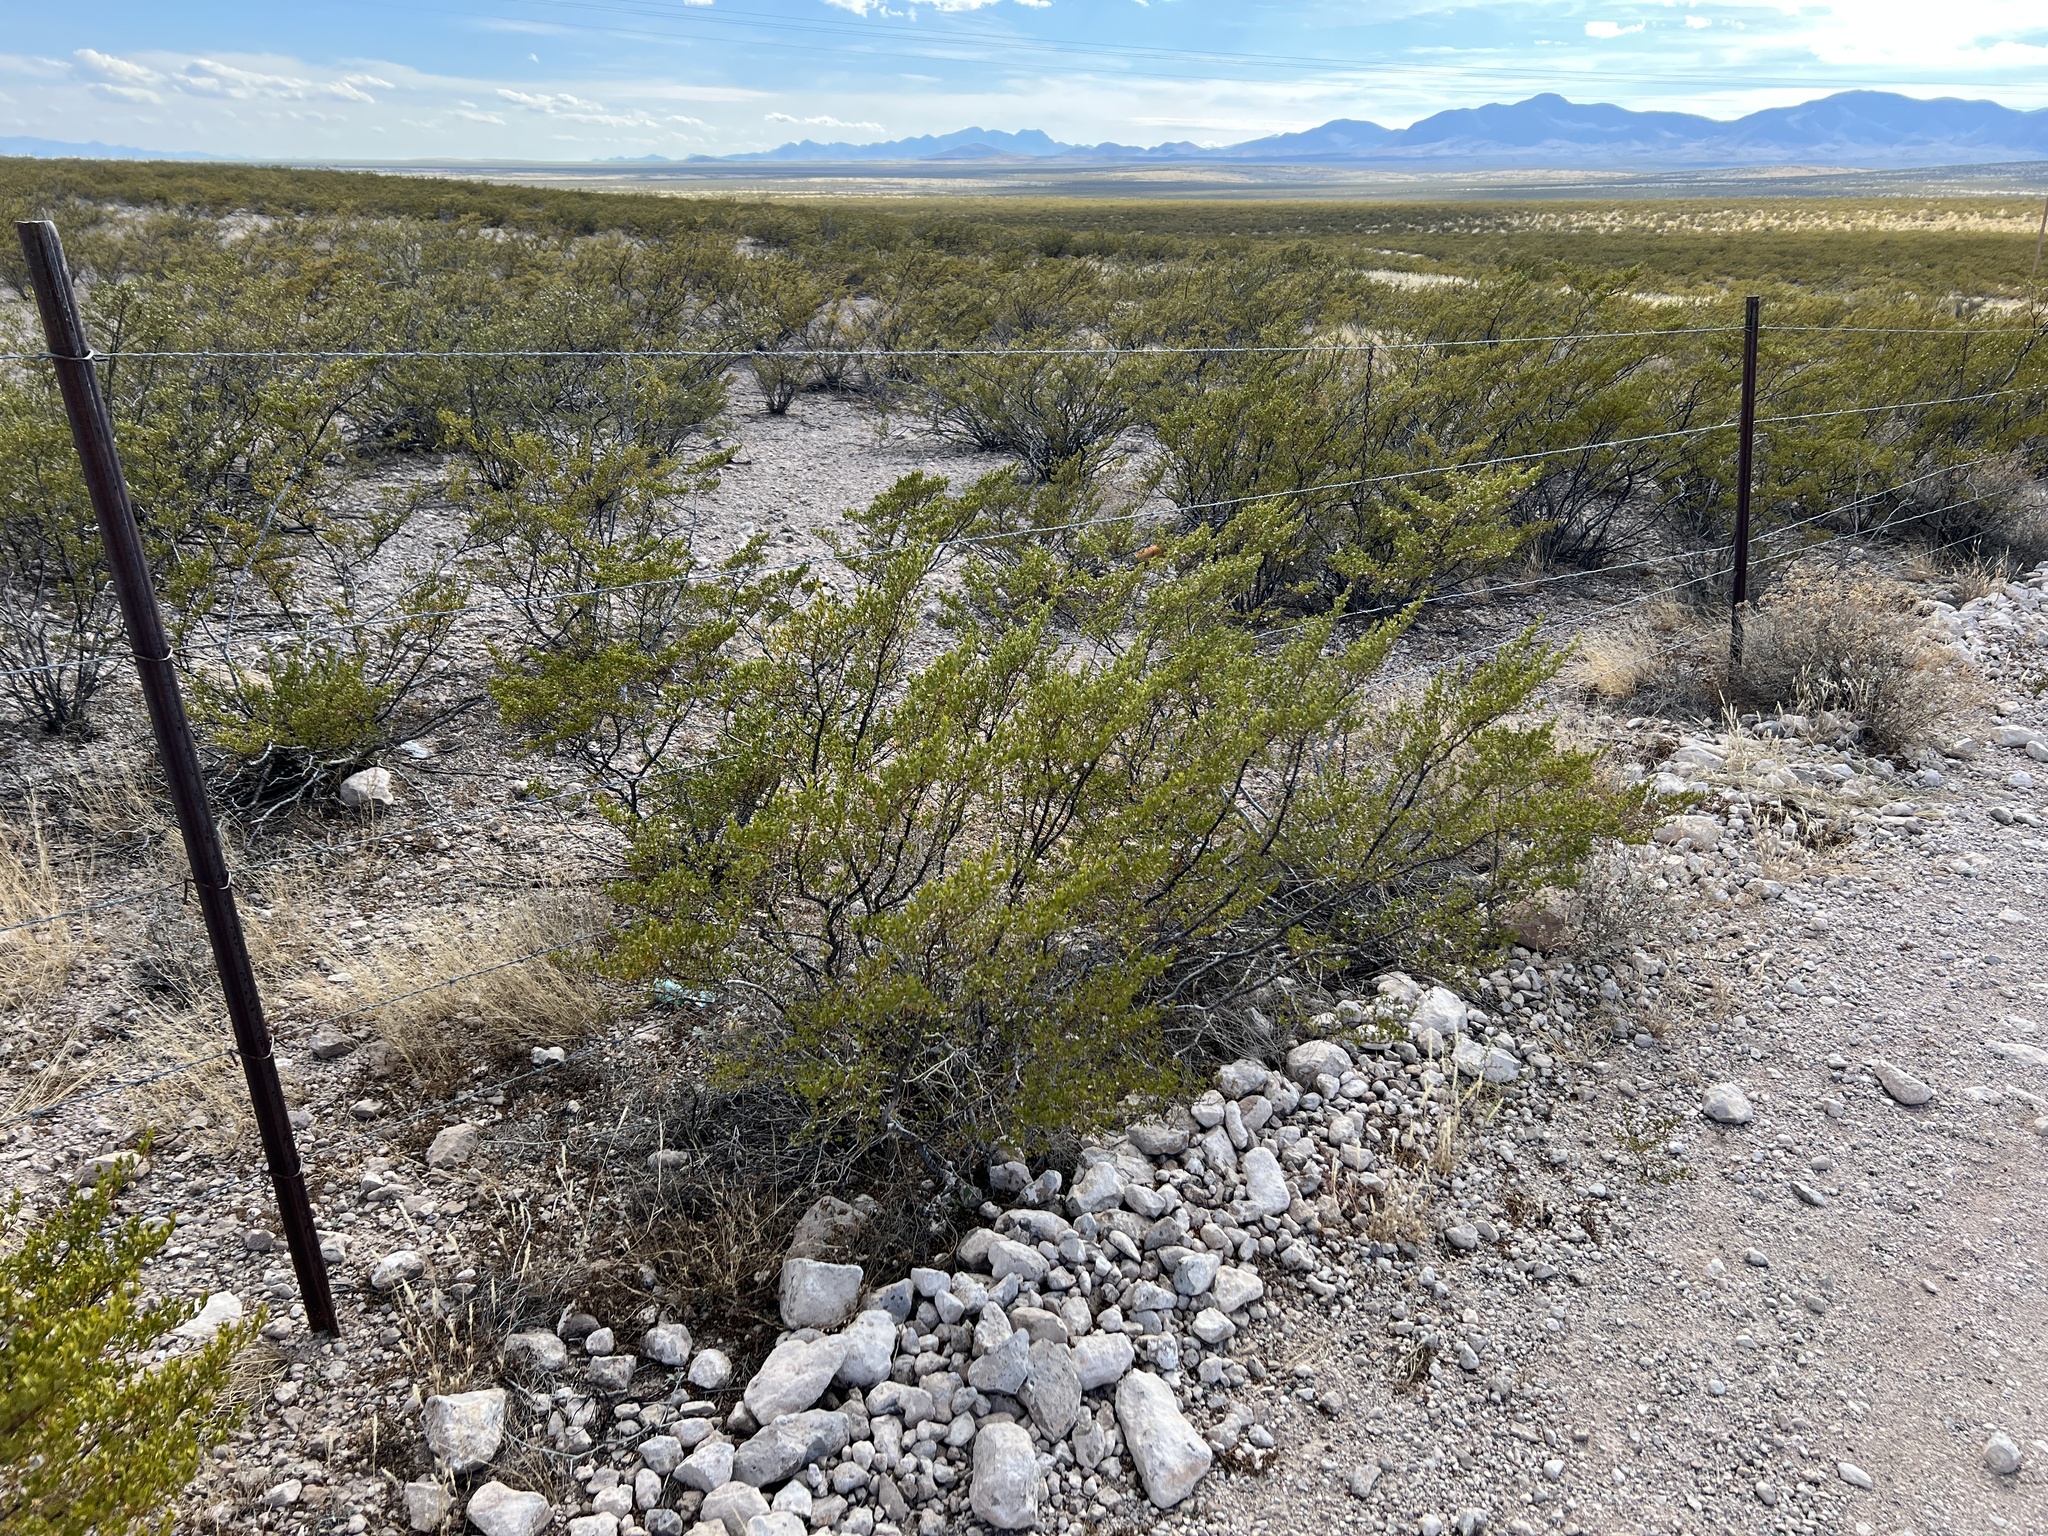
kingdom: Plantae
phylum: Tracheophyta
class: Magnoliopsida
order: Zygophyllales
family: Zygophyllaceae
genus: Larrea
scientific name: Larrea tridentata
